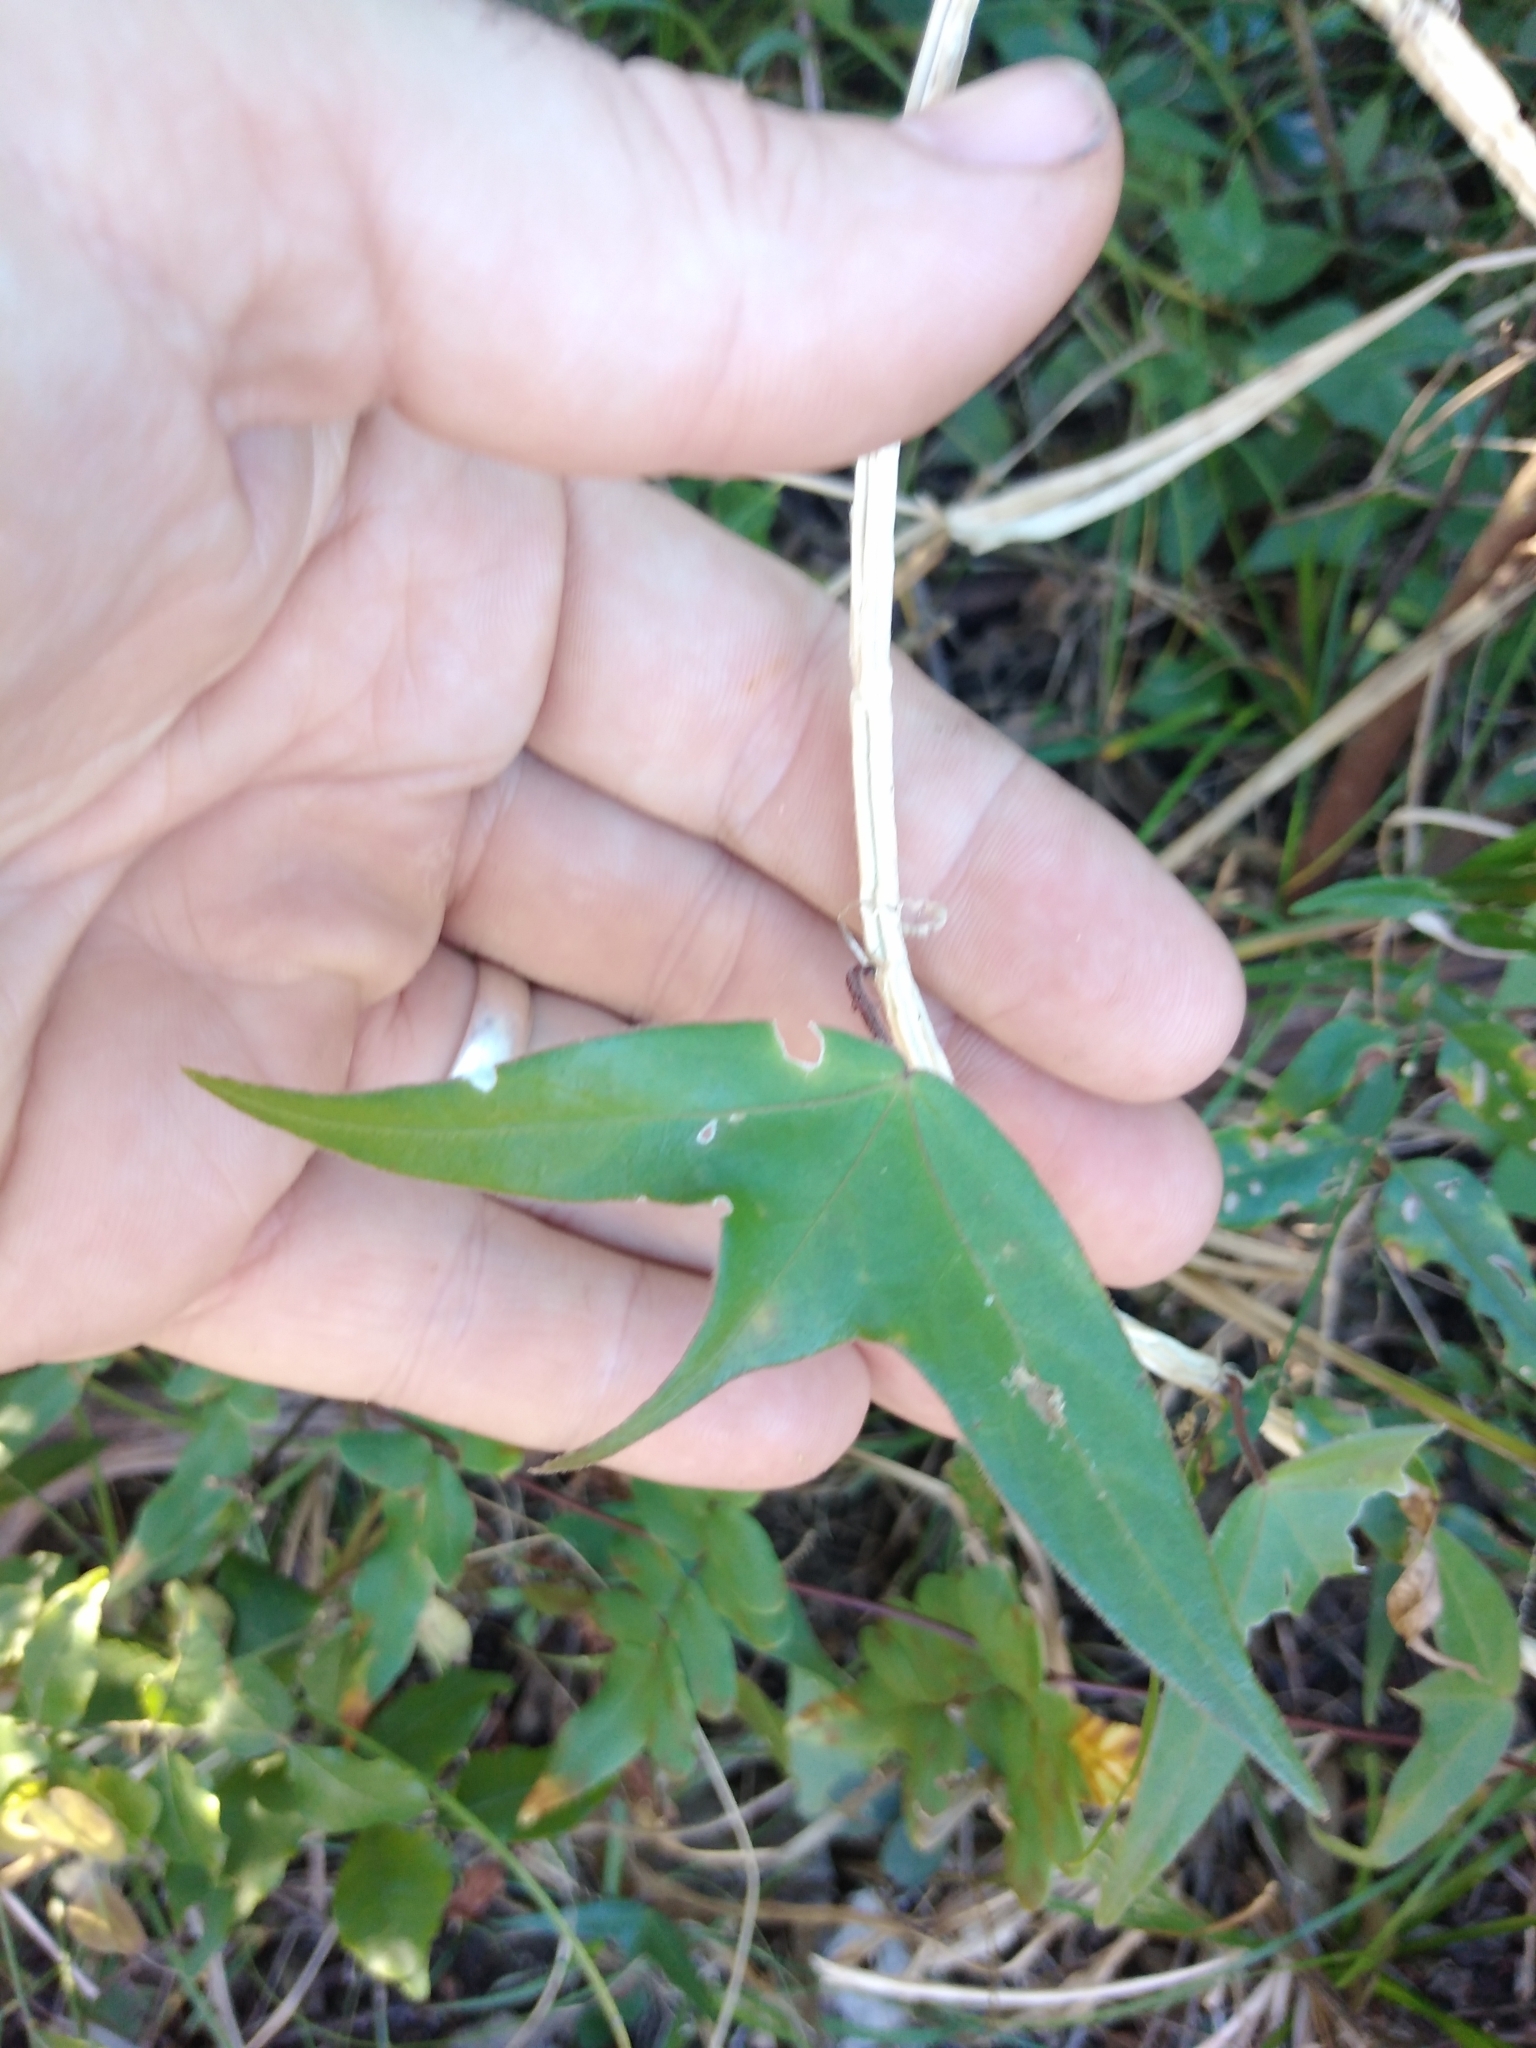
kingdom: Plantae
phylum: Tracheophyta
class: Magnoliopsida
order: Malpighiales
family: Passifloraceae
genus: Passiflora
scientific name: Passiflora suberosa
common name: Wild passionfruit
